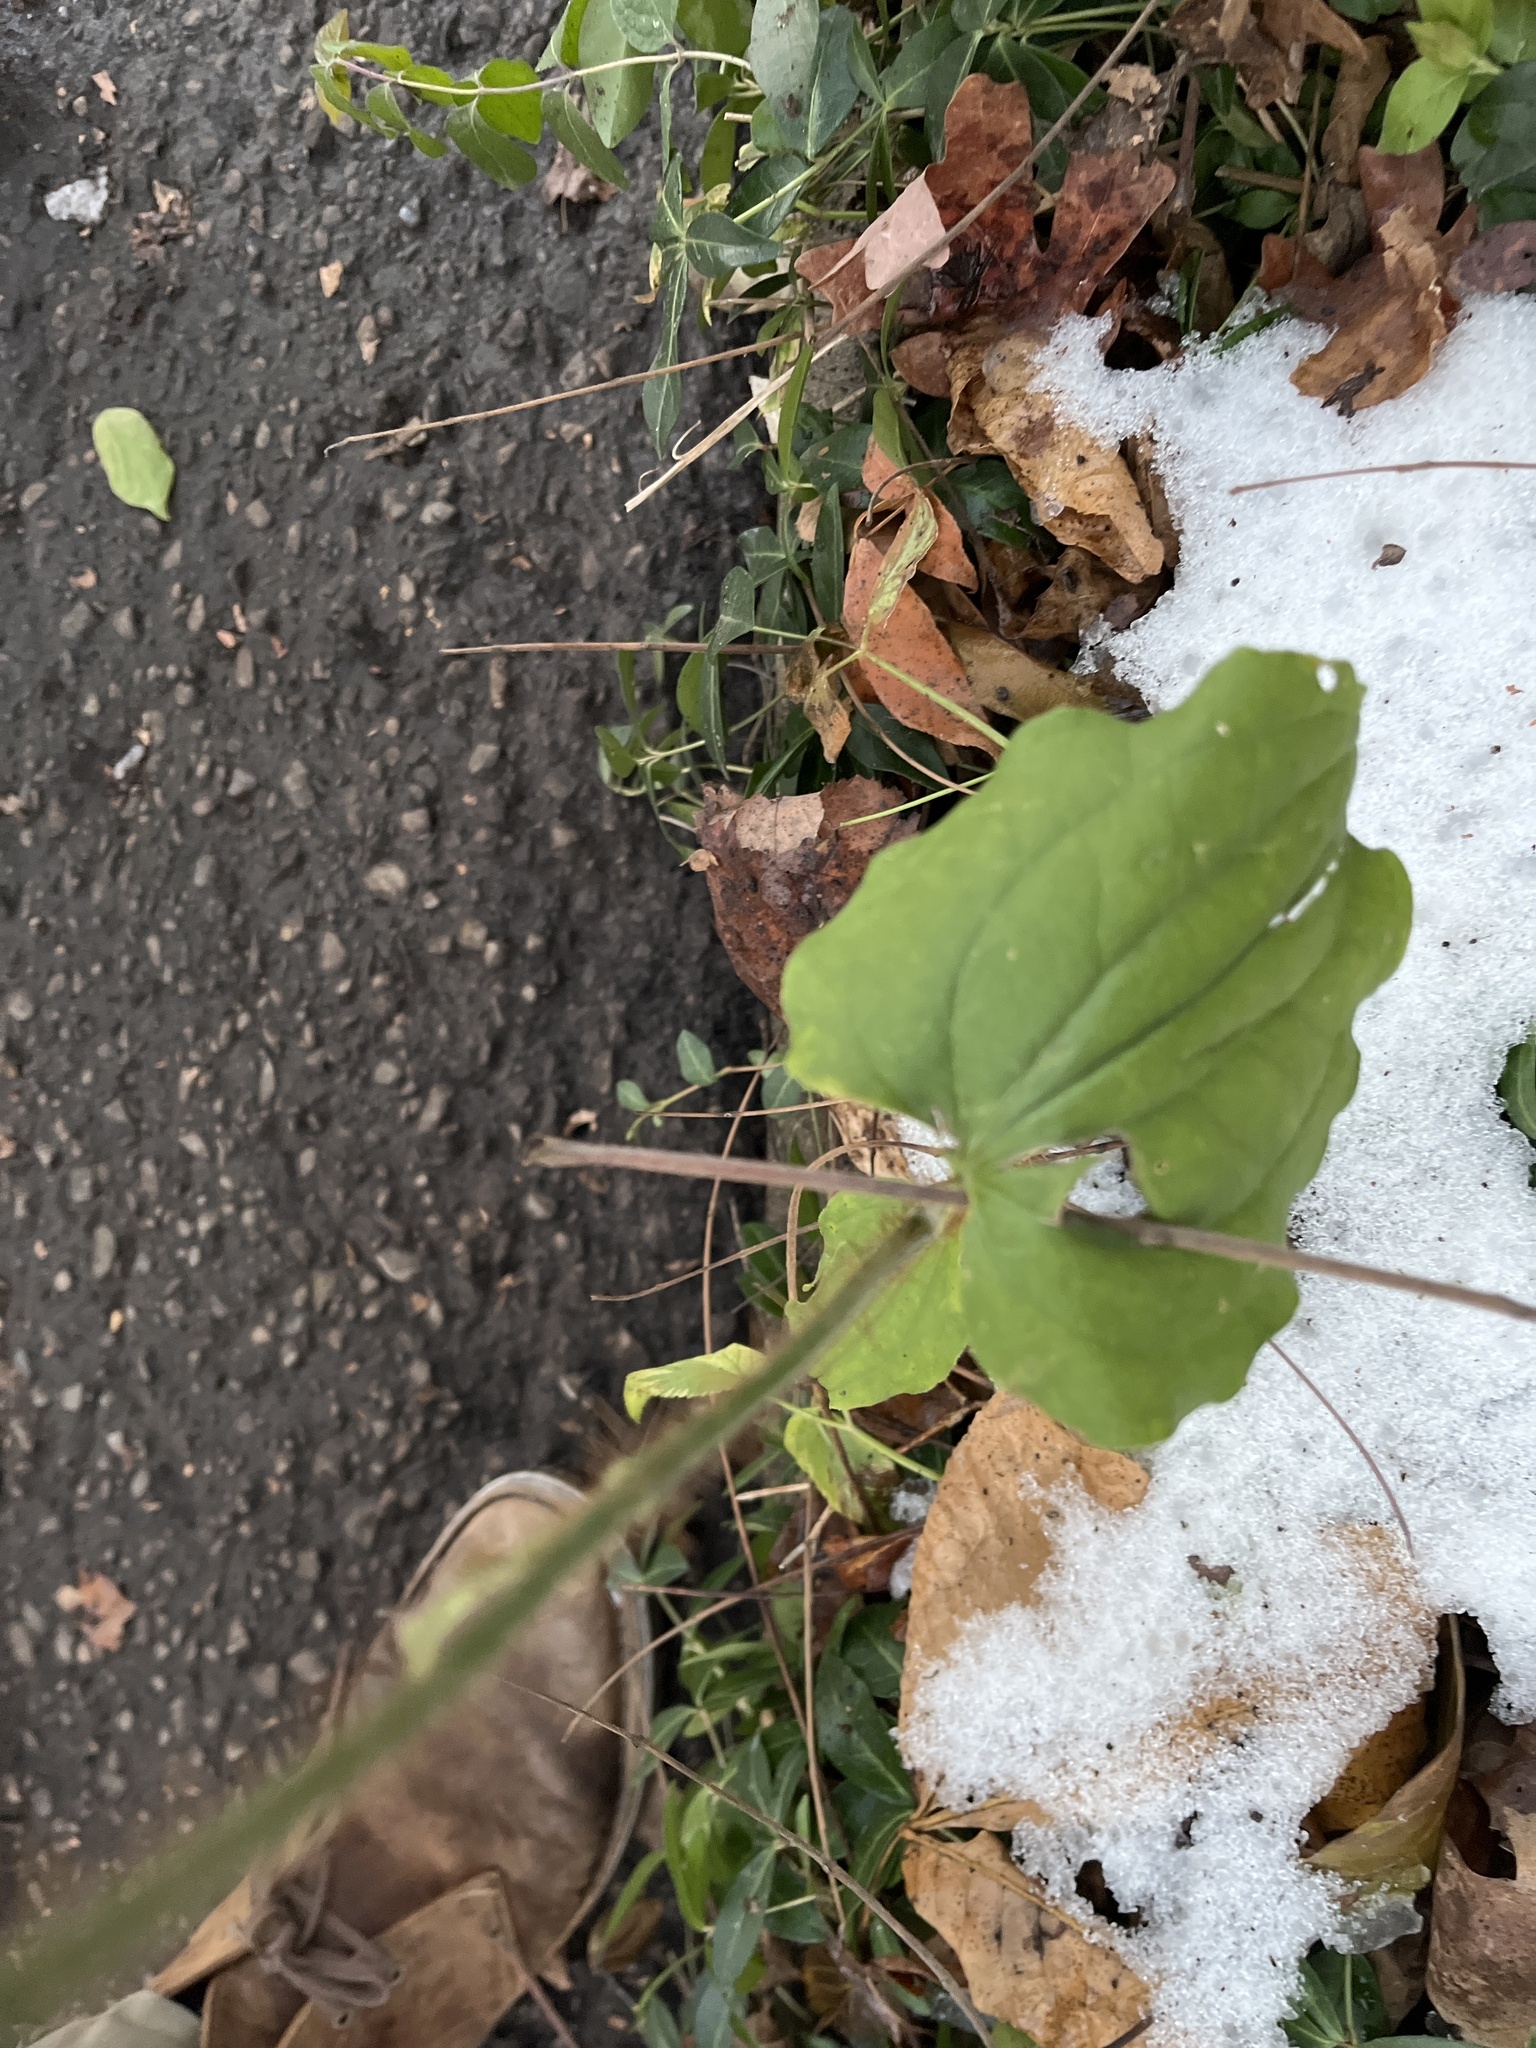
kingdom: Plantae
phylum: Tracheophyta
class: Liliopsida
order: Liliales
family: Smilacaceae
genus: Smilax
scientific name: Smilax tamnoides
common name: Hellfetter
